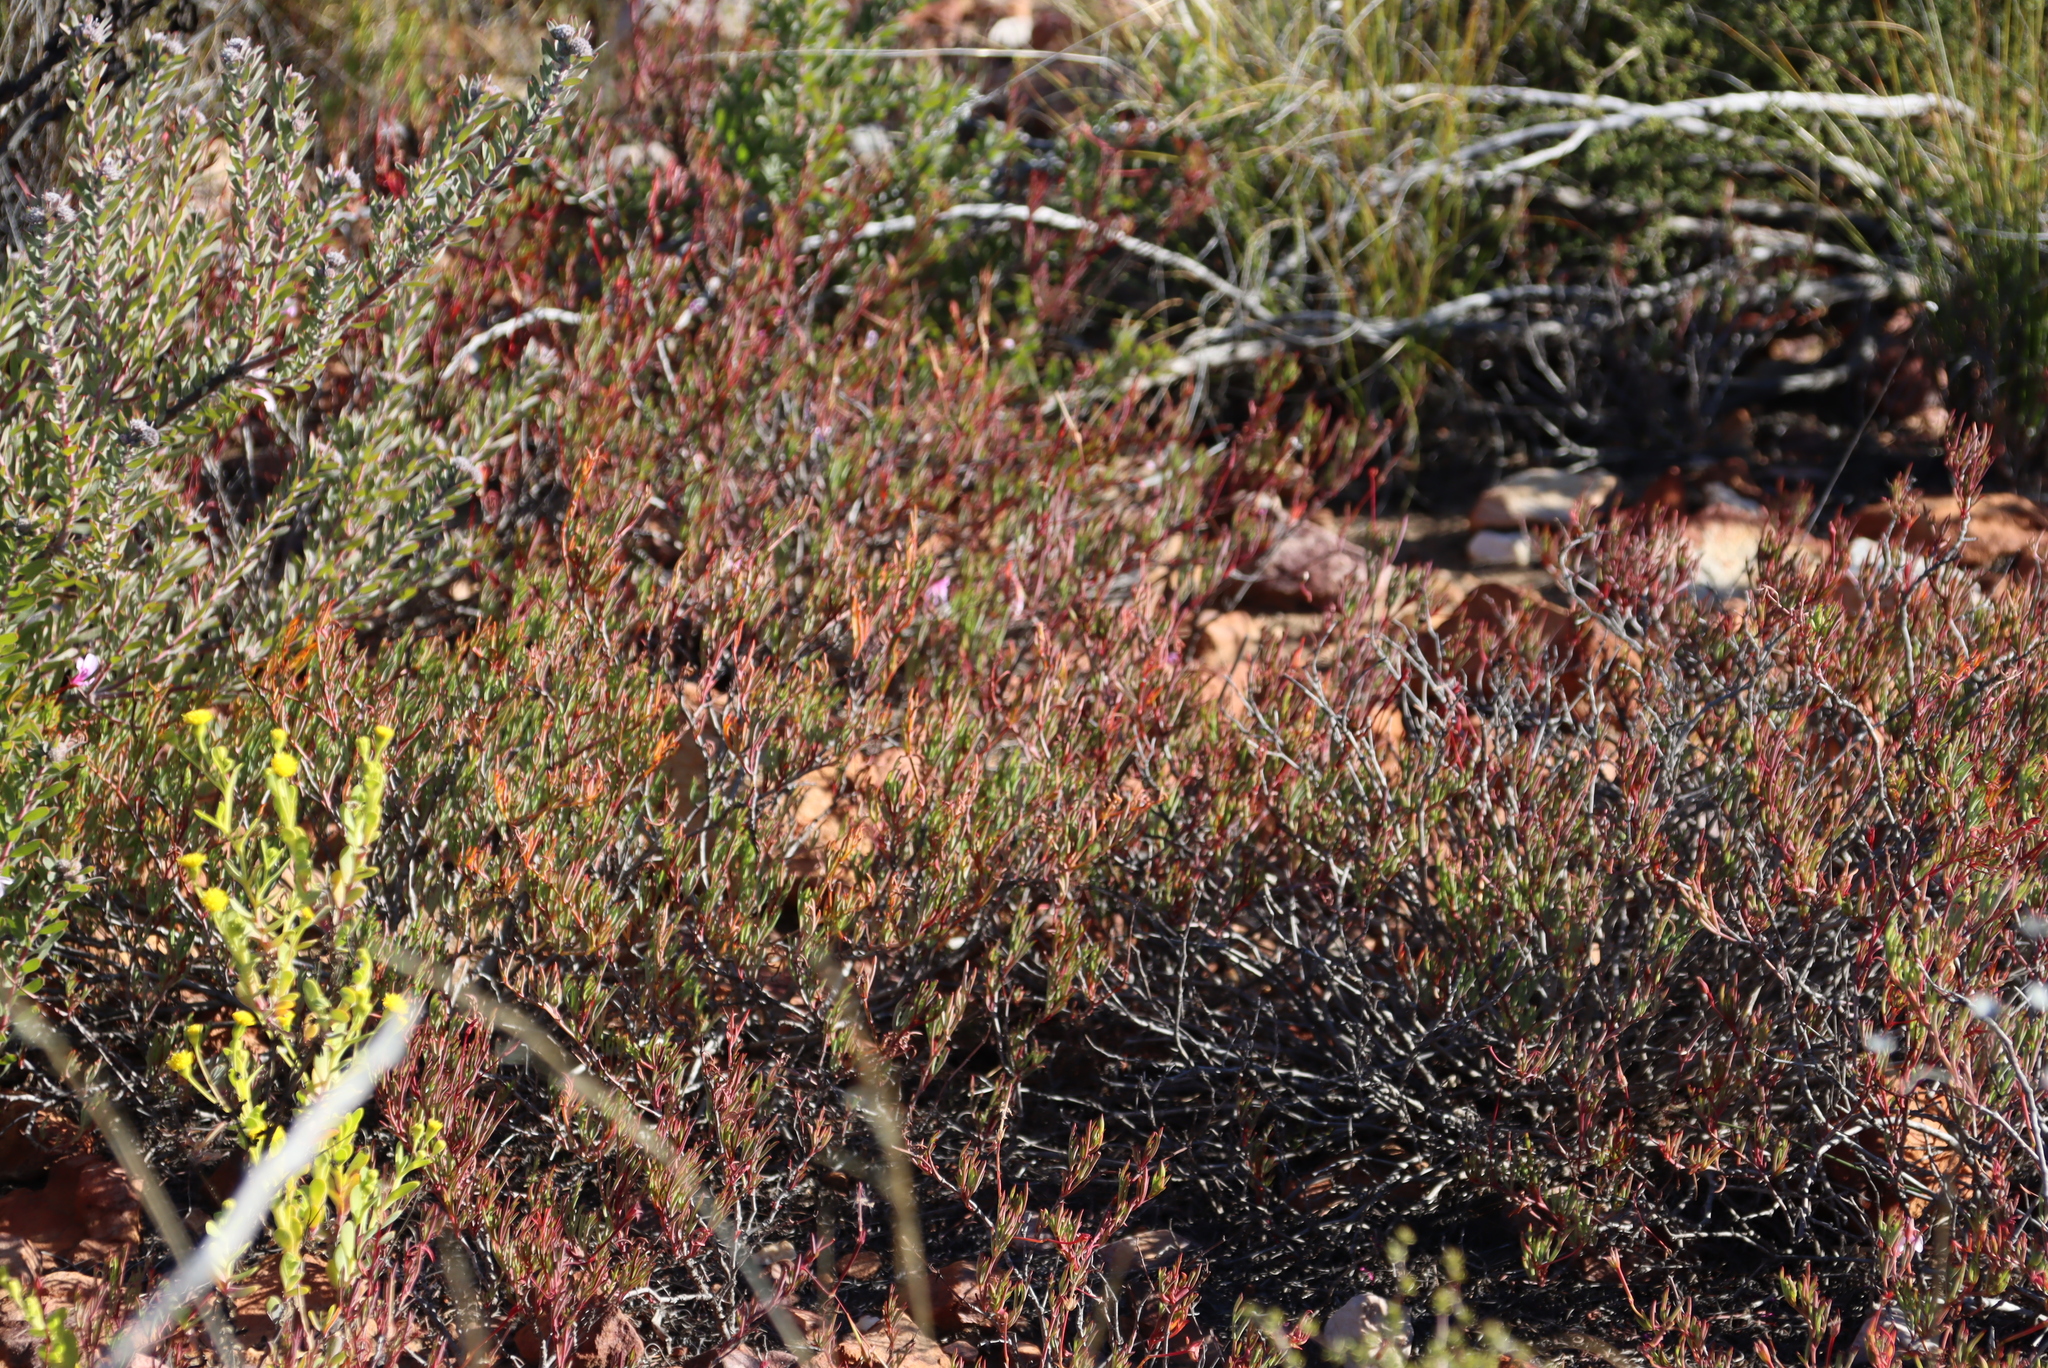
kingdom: Plantae
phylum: Tracheophyta
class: Magnoliopsida
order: Geraniales
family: Geraniaceae
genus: Pelargonium
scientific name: Pelargonium laevigatum
